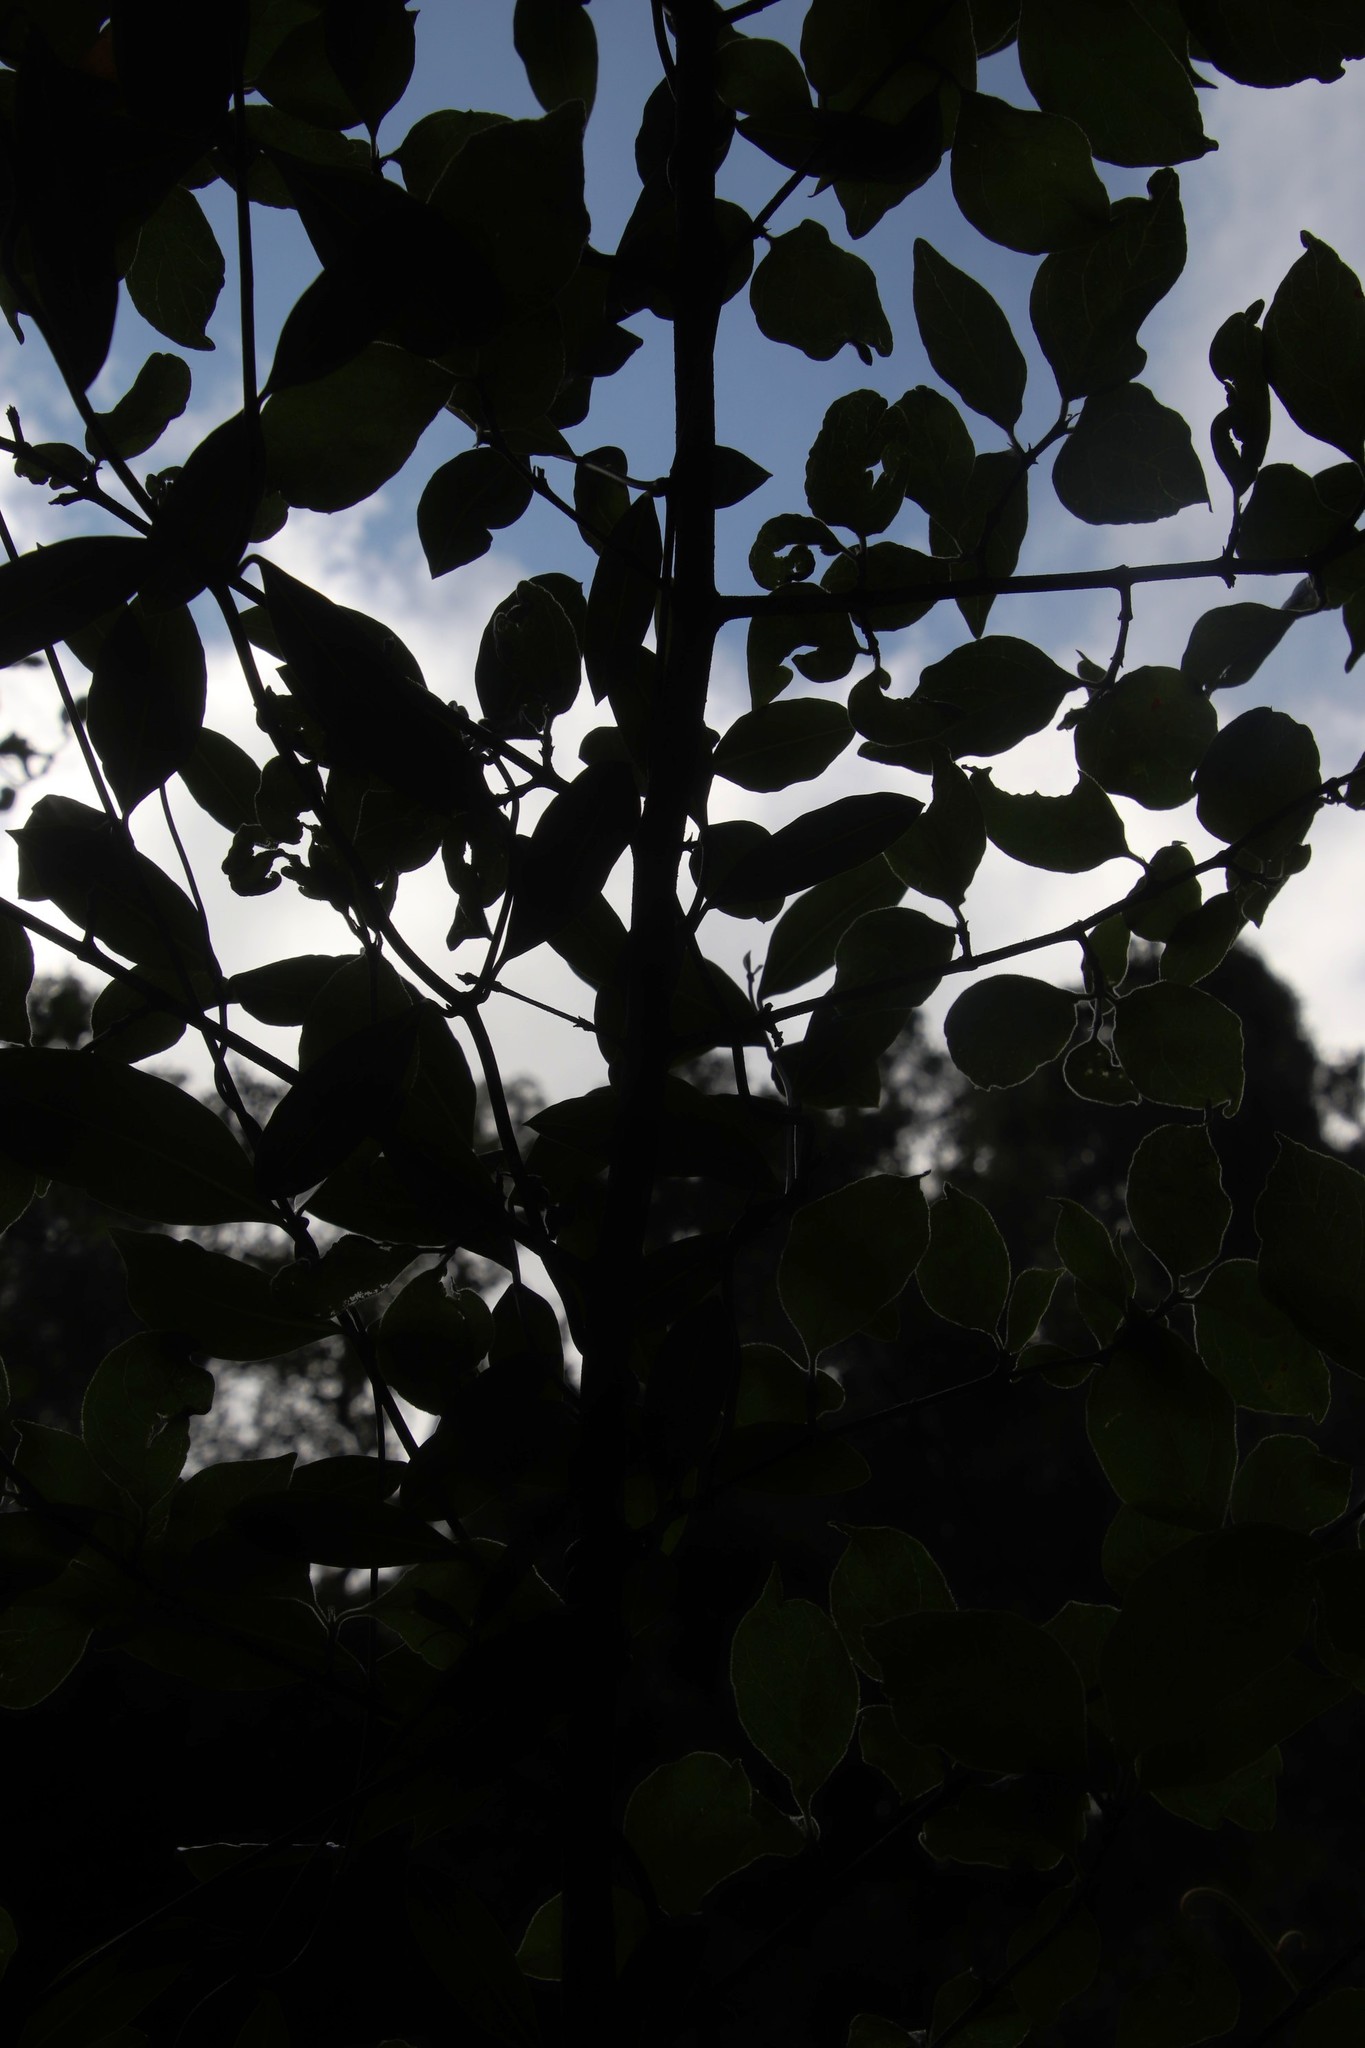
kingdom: Plantae
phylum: Tracheophyta
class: Magnoliopsida
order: Gentianales
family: Rubiaceae
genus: Afrocanthium
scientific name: Afrocanthium mundianum
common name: Rock-alder
